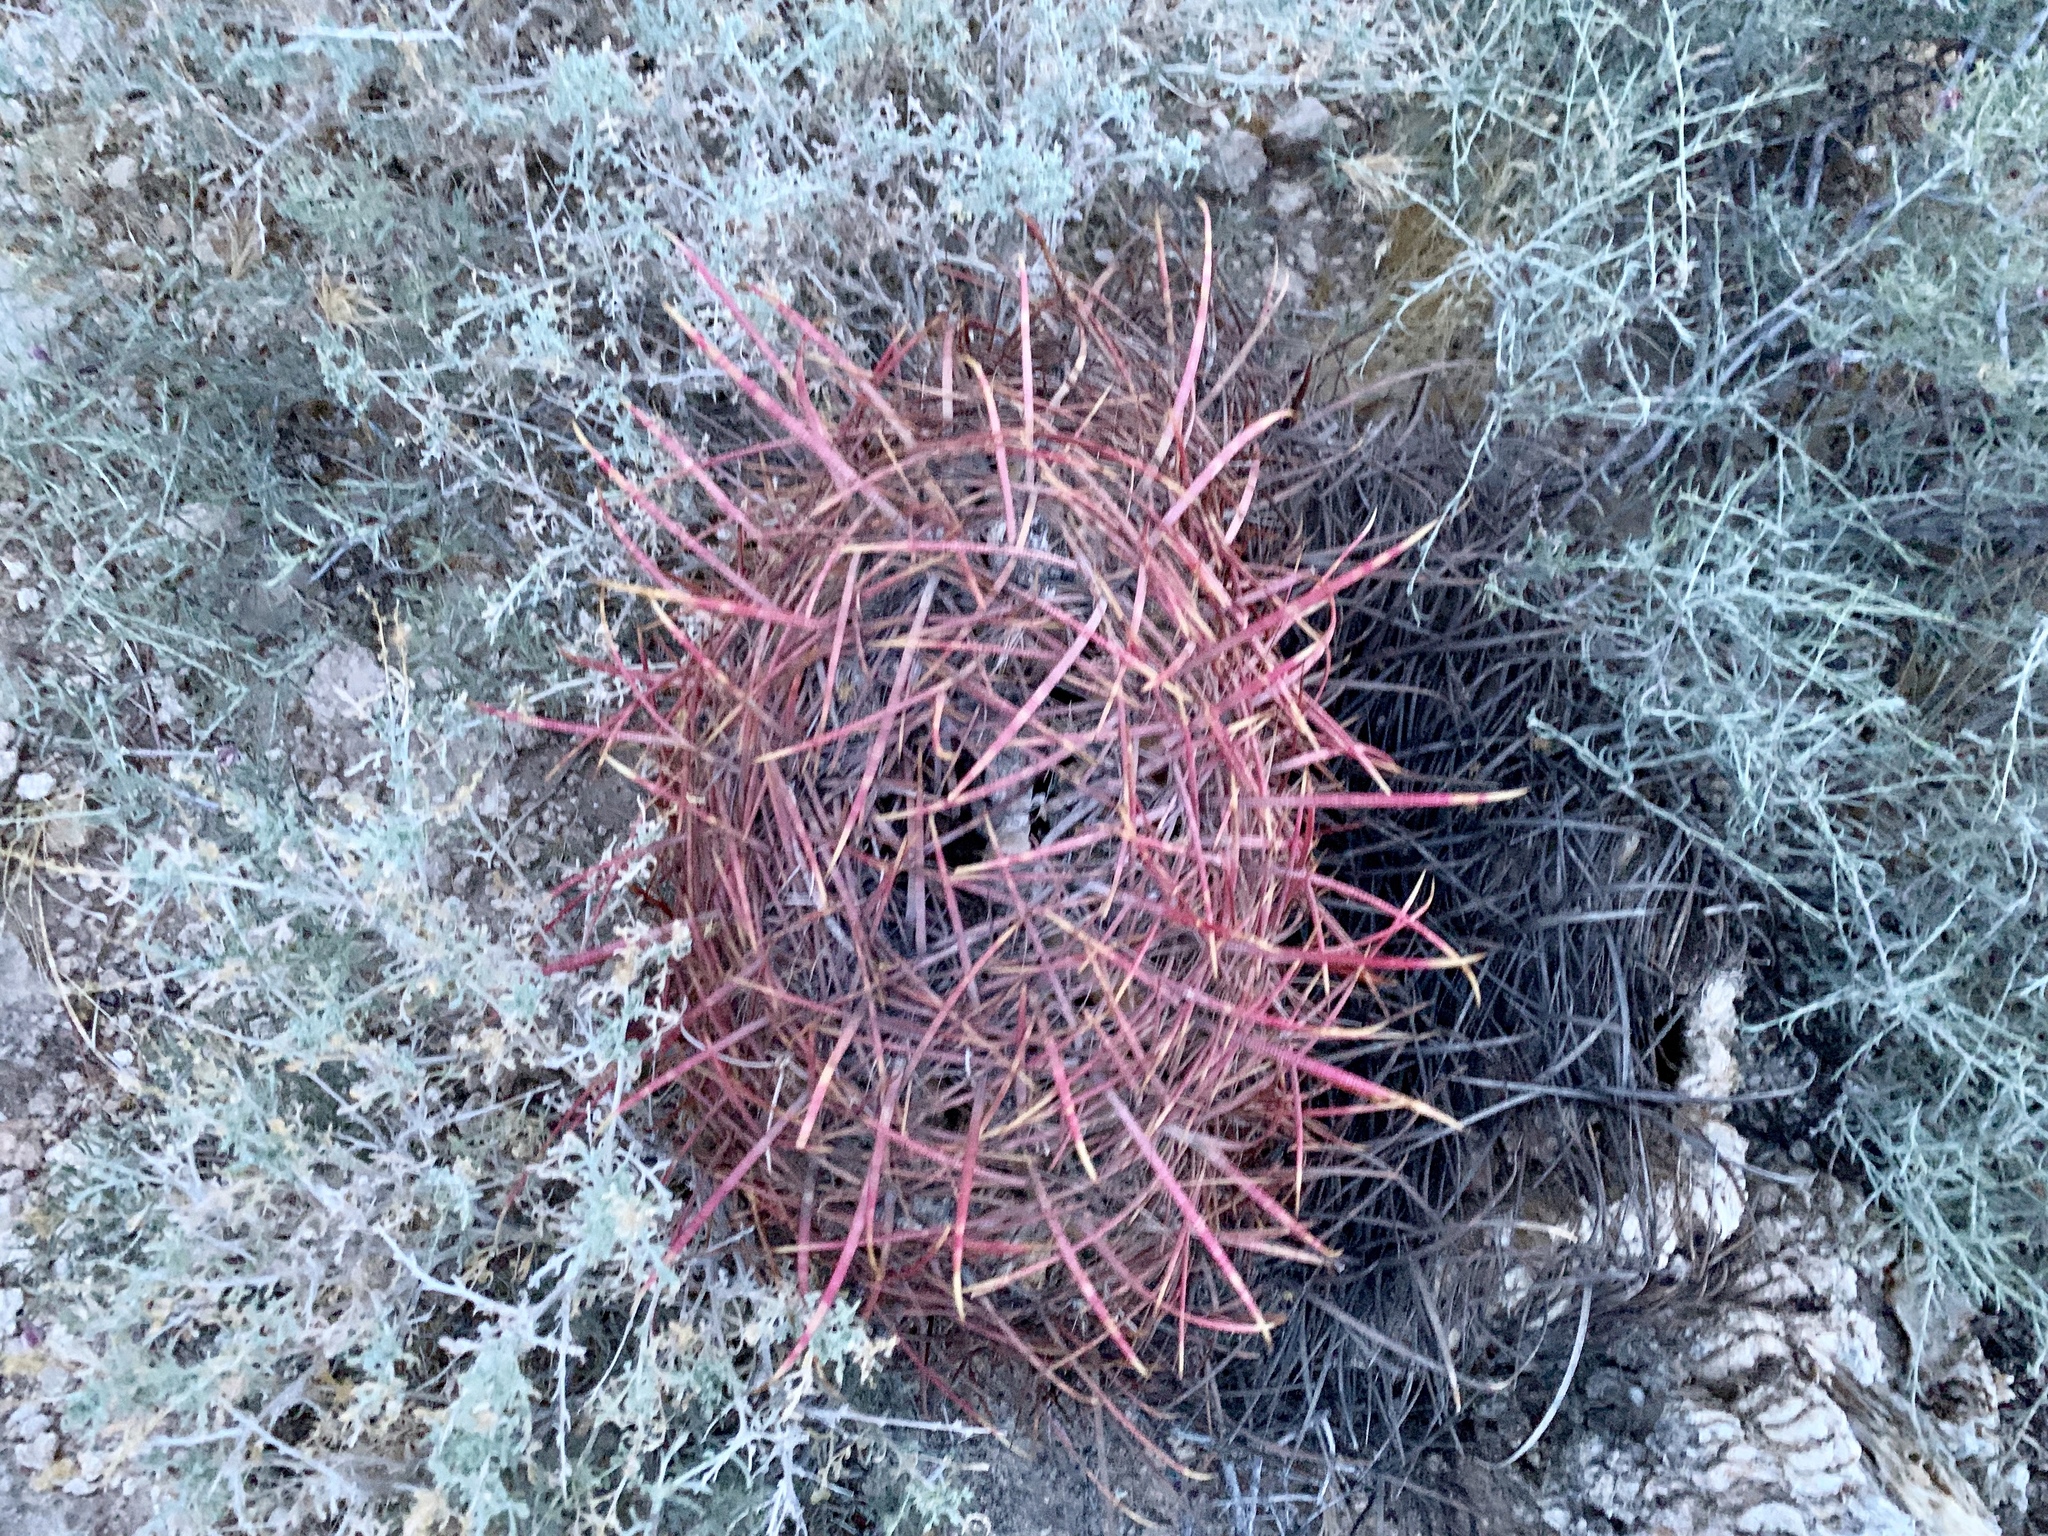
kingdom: Plantae
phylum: Tracheophyta
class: Magnoliopsida
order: Caryophyllales
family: Cactaceae
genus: Ferocactus
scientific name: Ferocactus cylindraceus
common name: California barrel cactus
